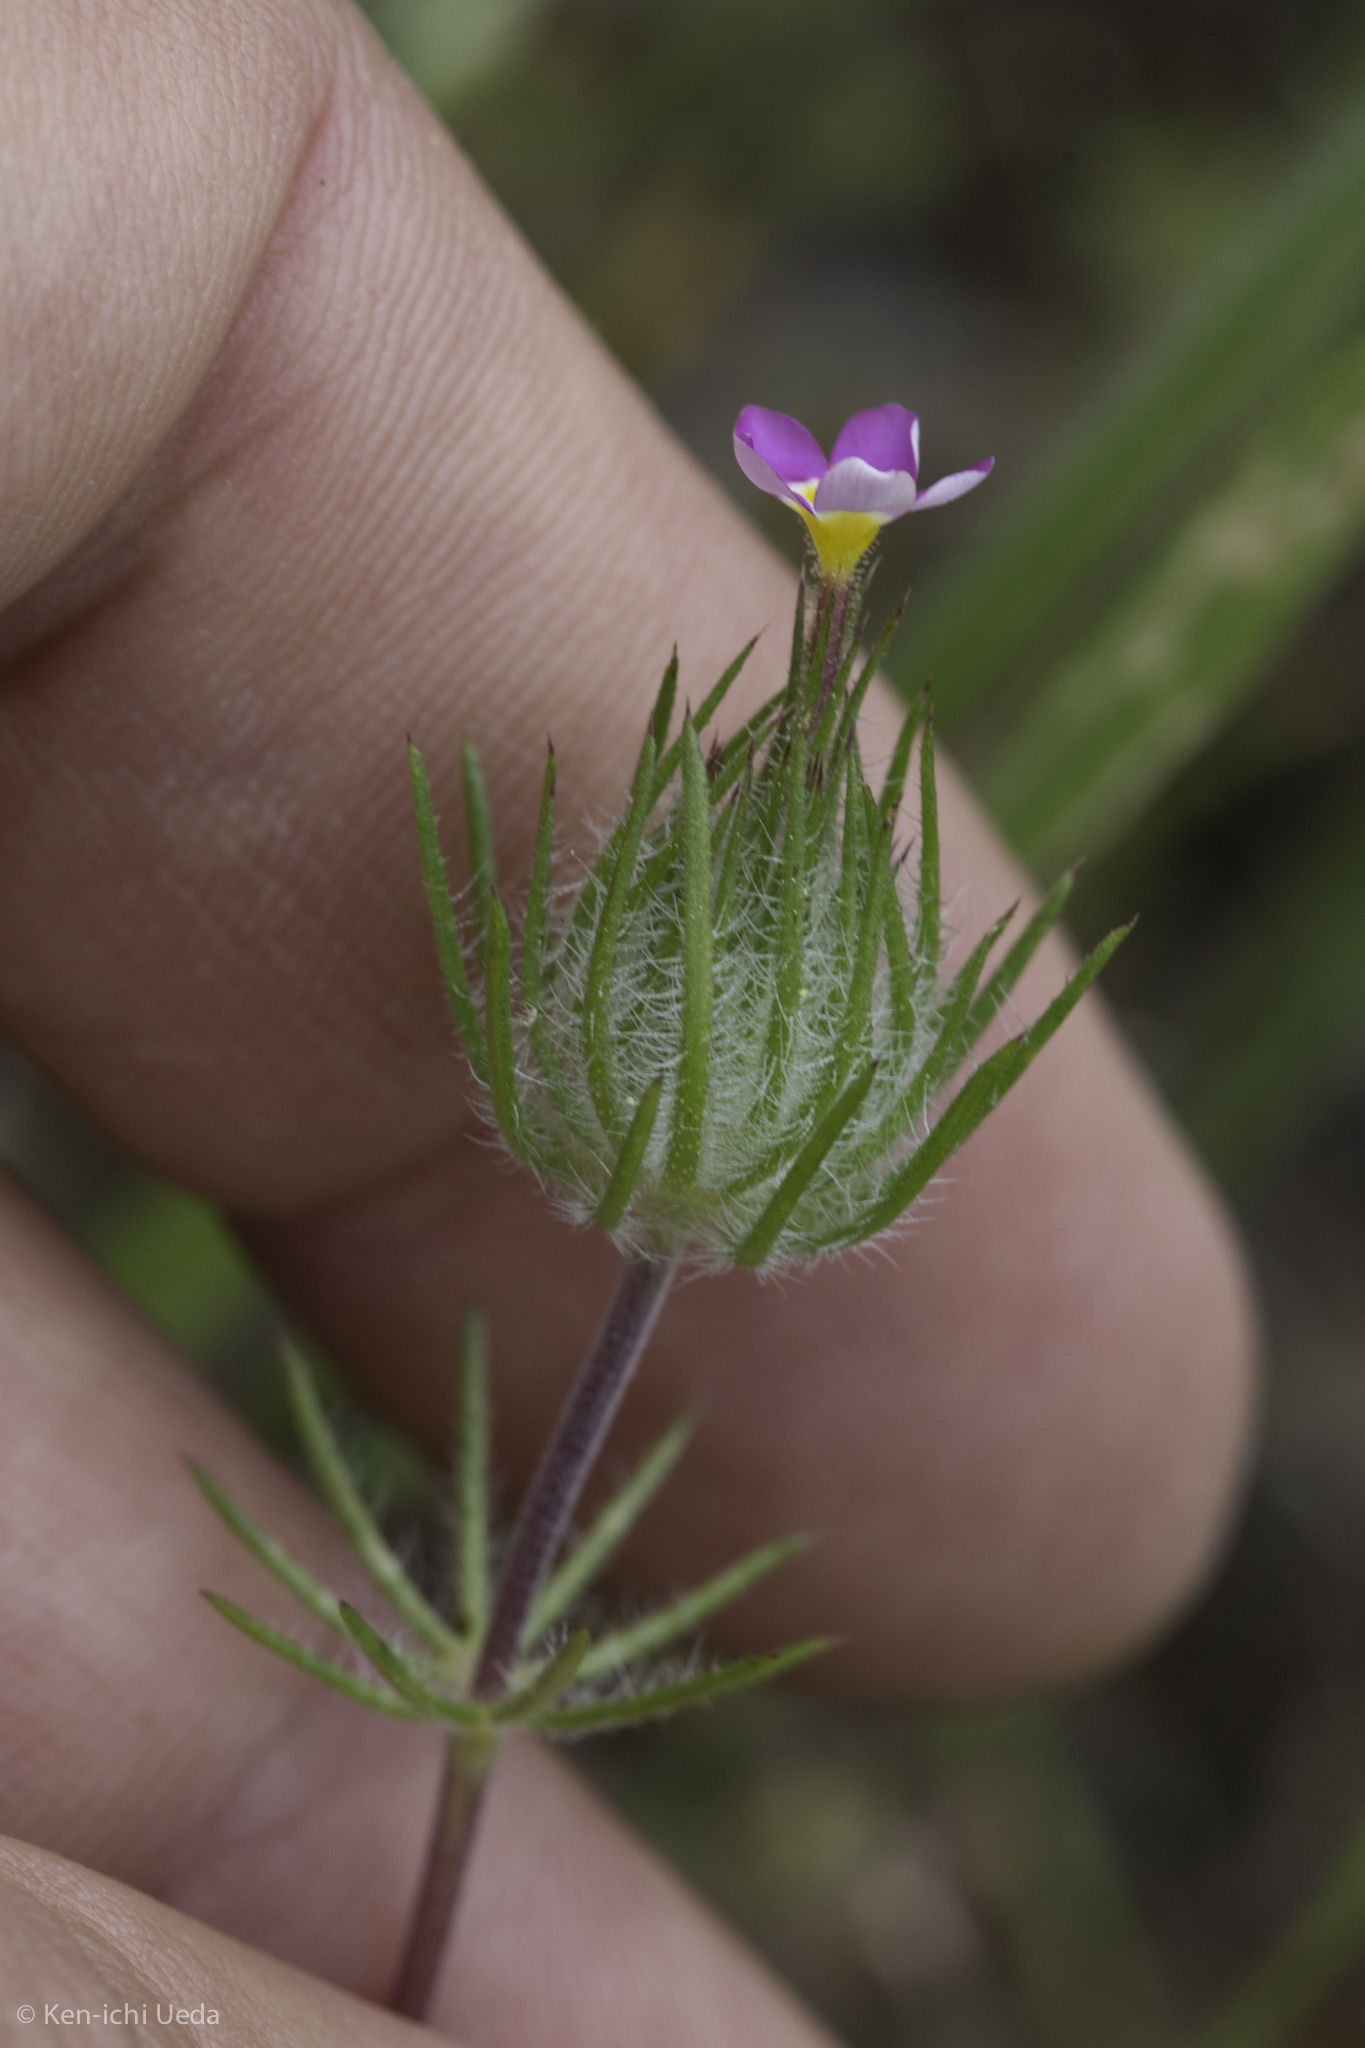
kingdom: Plantae
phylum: Tracheophyta
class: Magnoliopsida
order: Ericales
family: Polemoniaceae
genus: Leptosiphon
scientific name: Leptosiphon ciliatus
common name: Whiskerbrush
